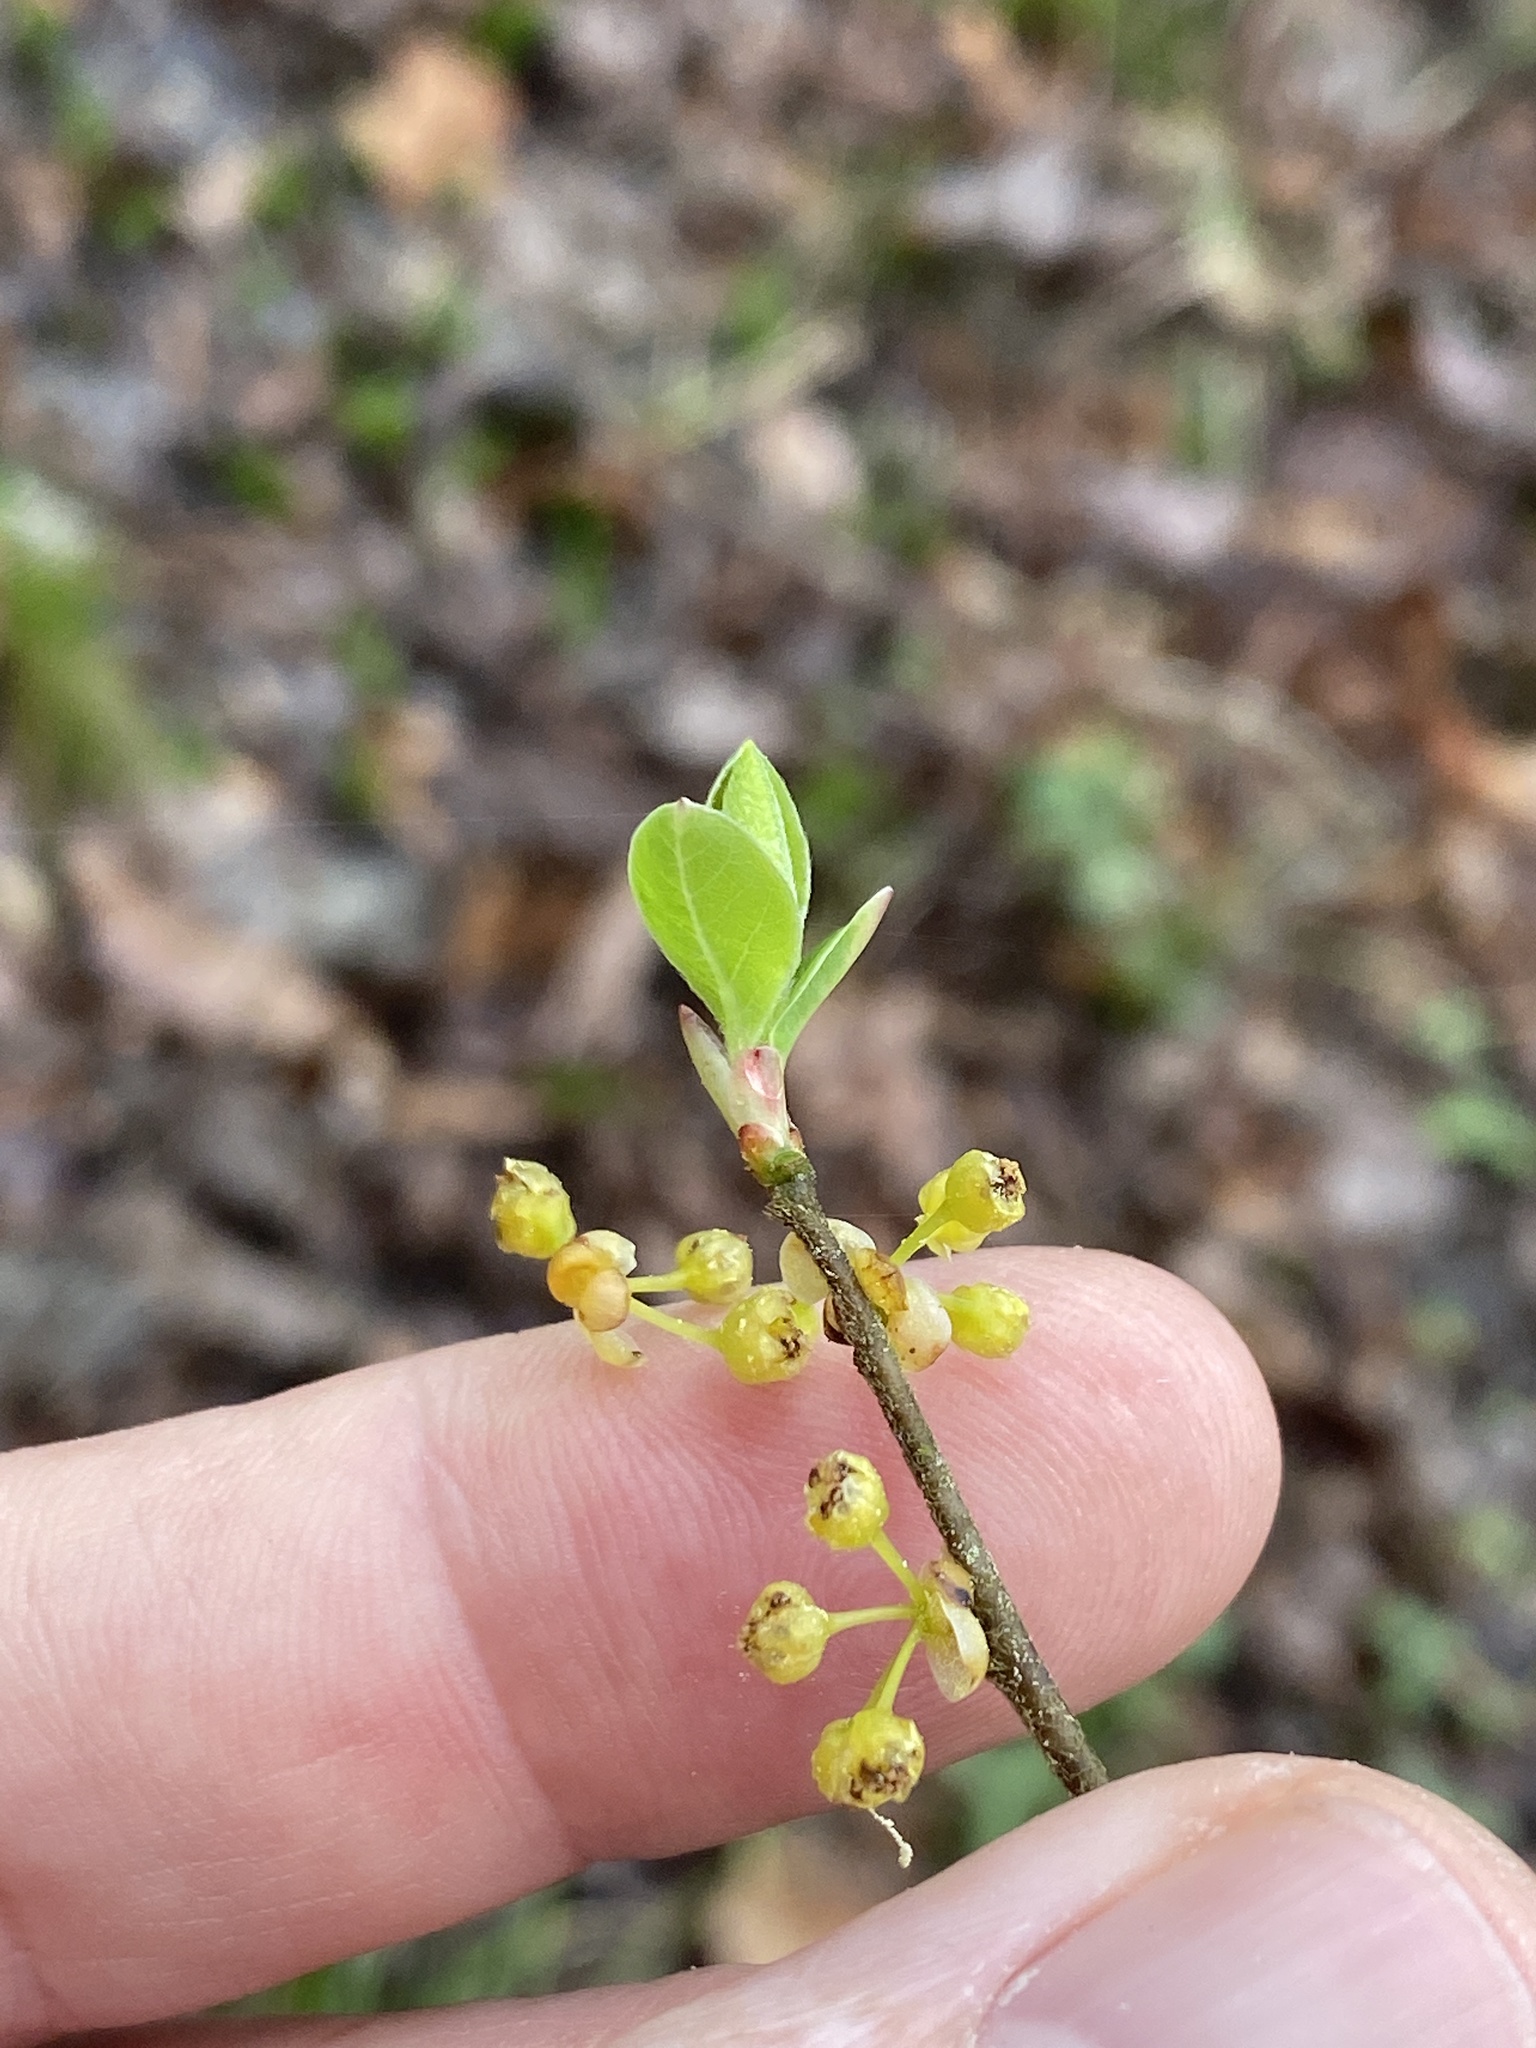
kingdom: Plantae
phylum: Tracheophyta
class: Magnoliopsida
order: Laurales
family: Lauraceae
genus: Lindera
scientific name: Lindera benzoin
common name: Spicebush
